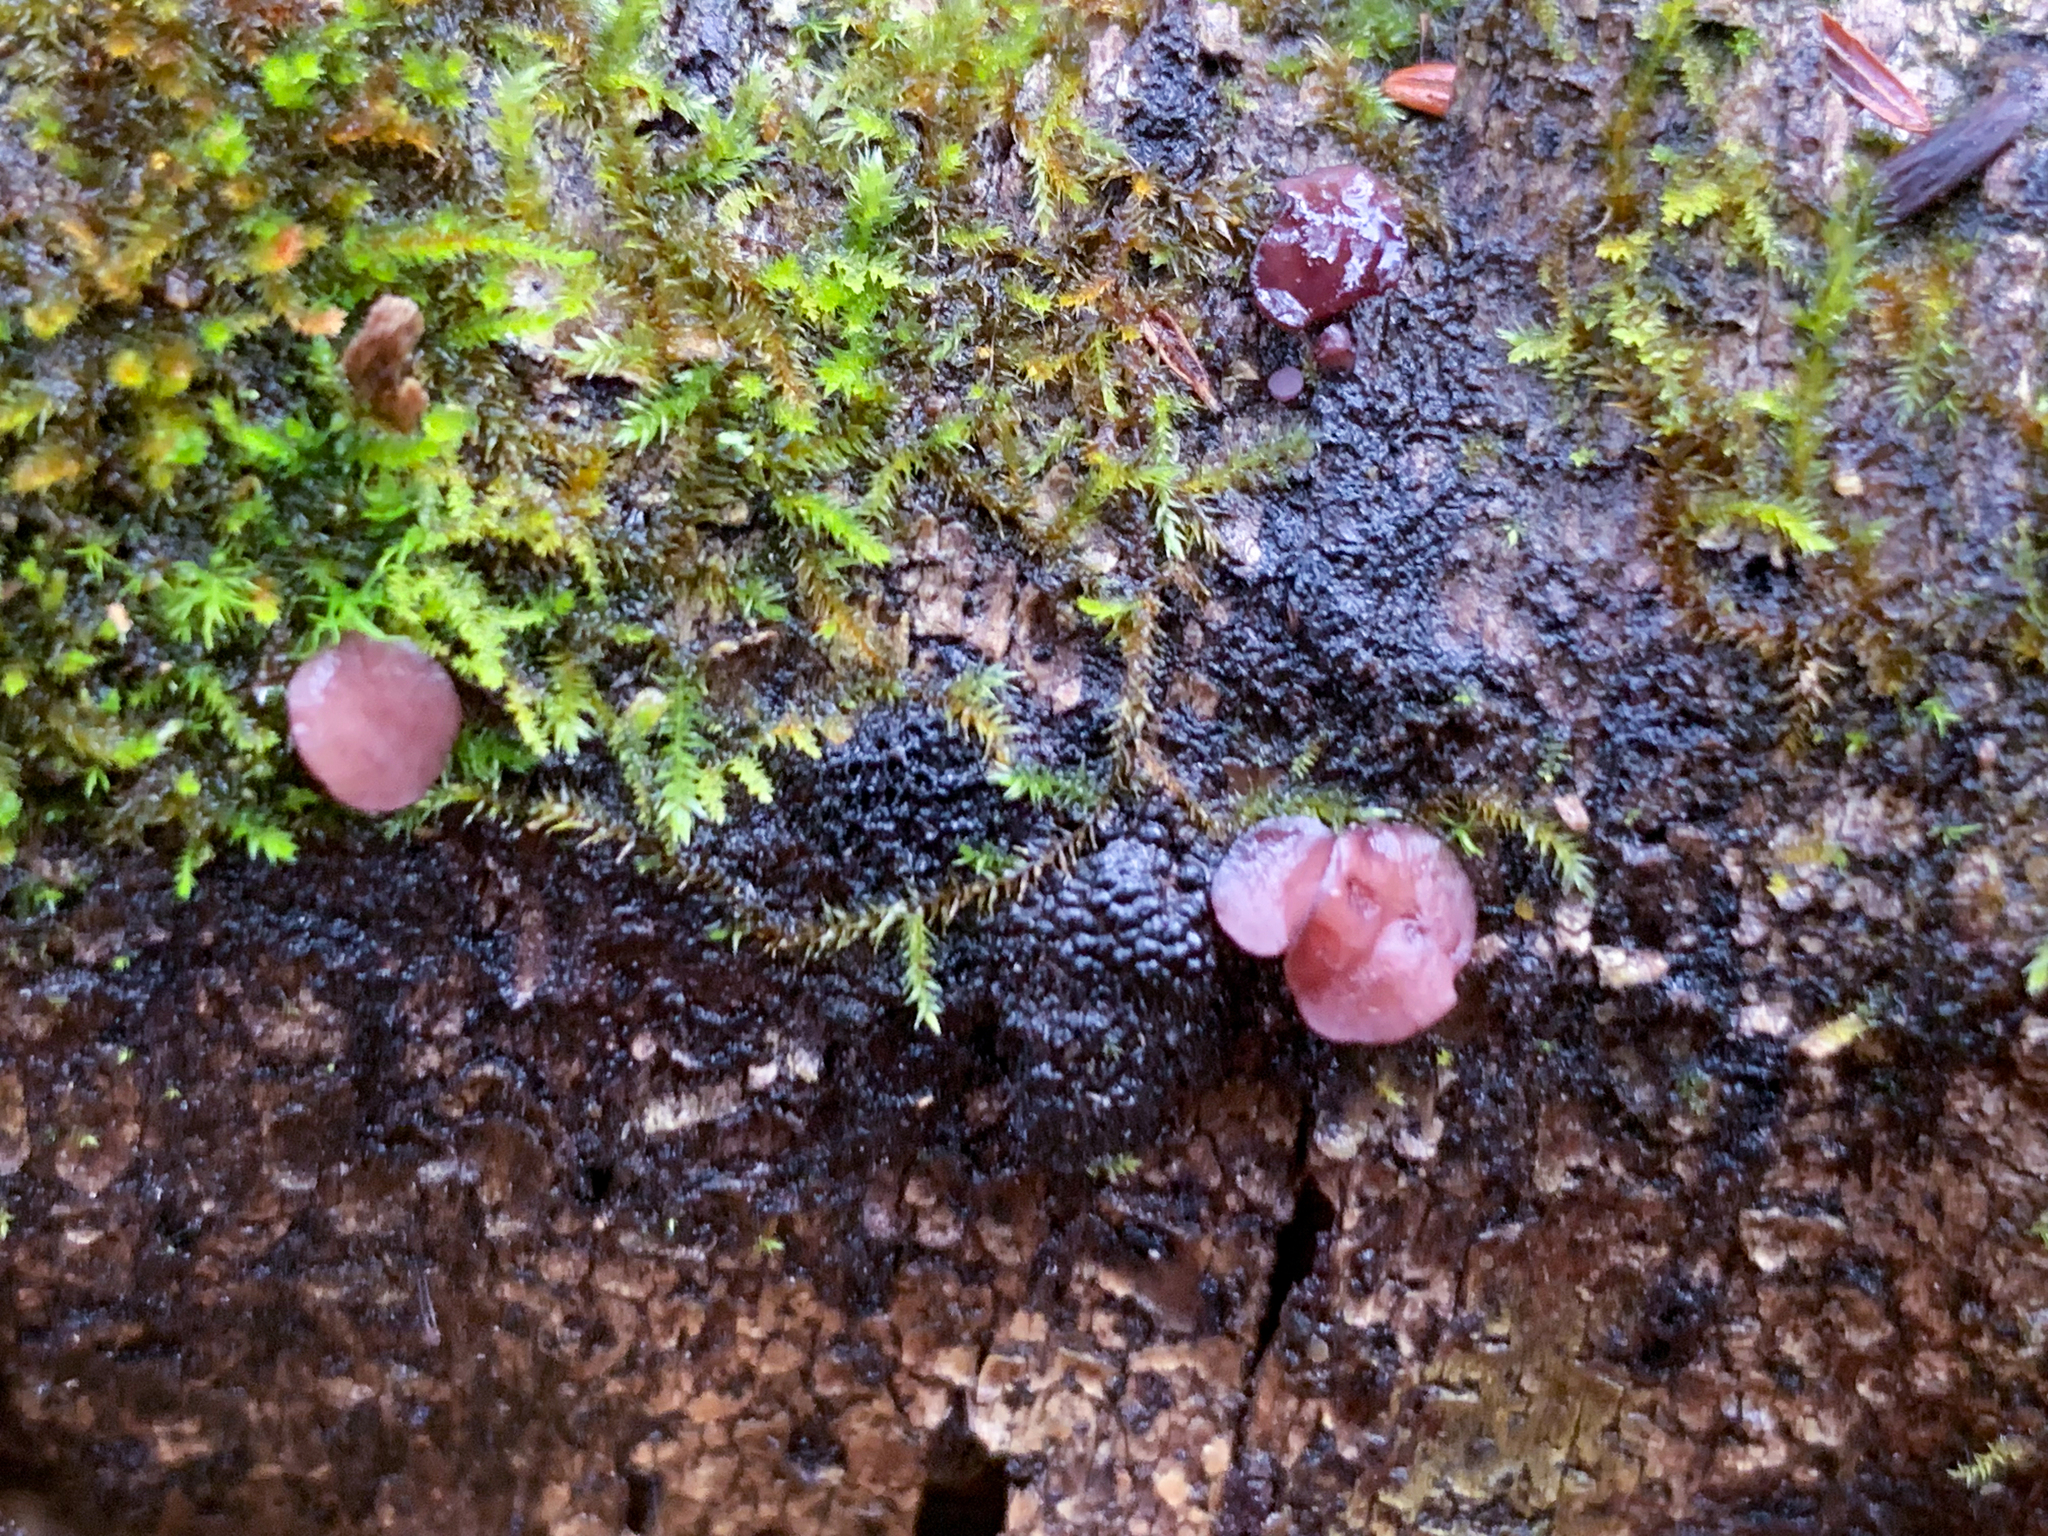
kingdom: Fungi
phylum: Ascomycota
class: Leotiomycetes
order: Helotiales
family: Gelatinodiscaceae
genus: Ascocoryne
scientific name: Ascocoryne sarcoides
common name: Purple jellydisc
